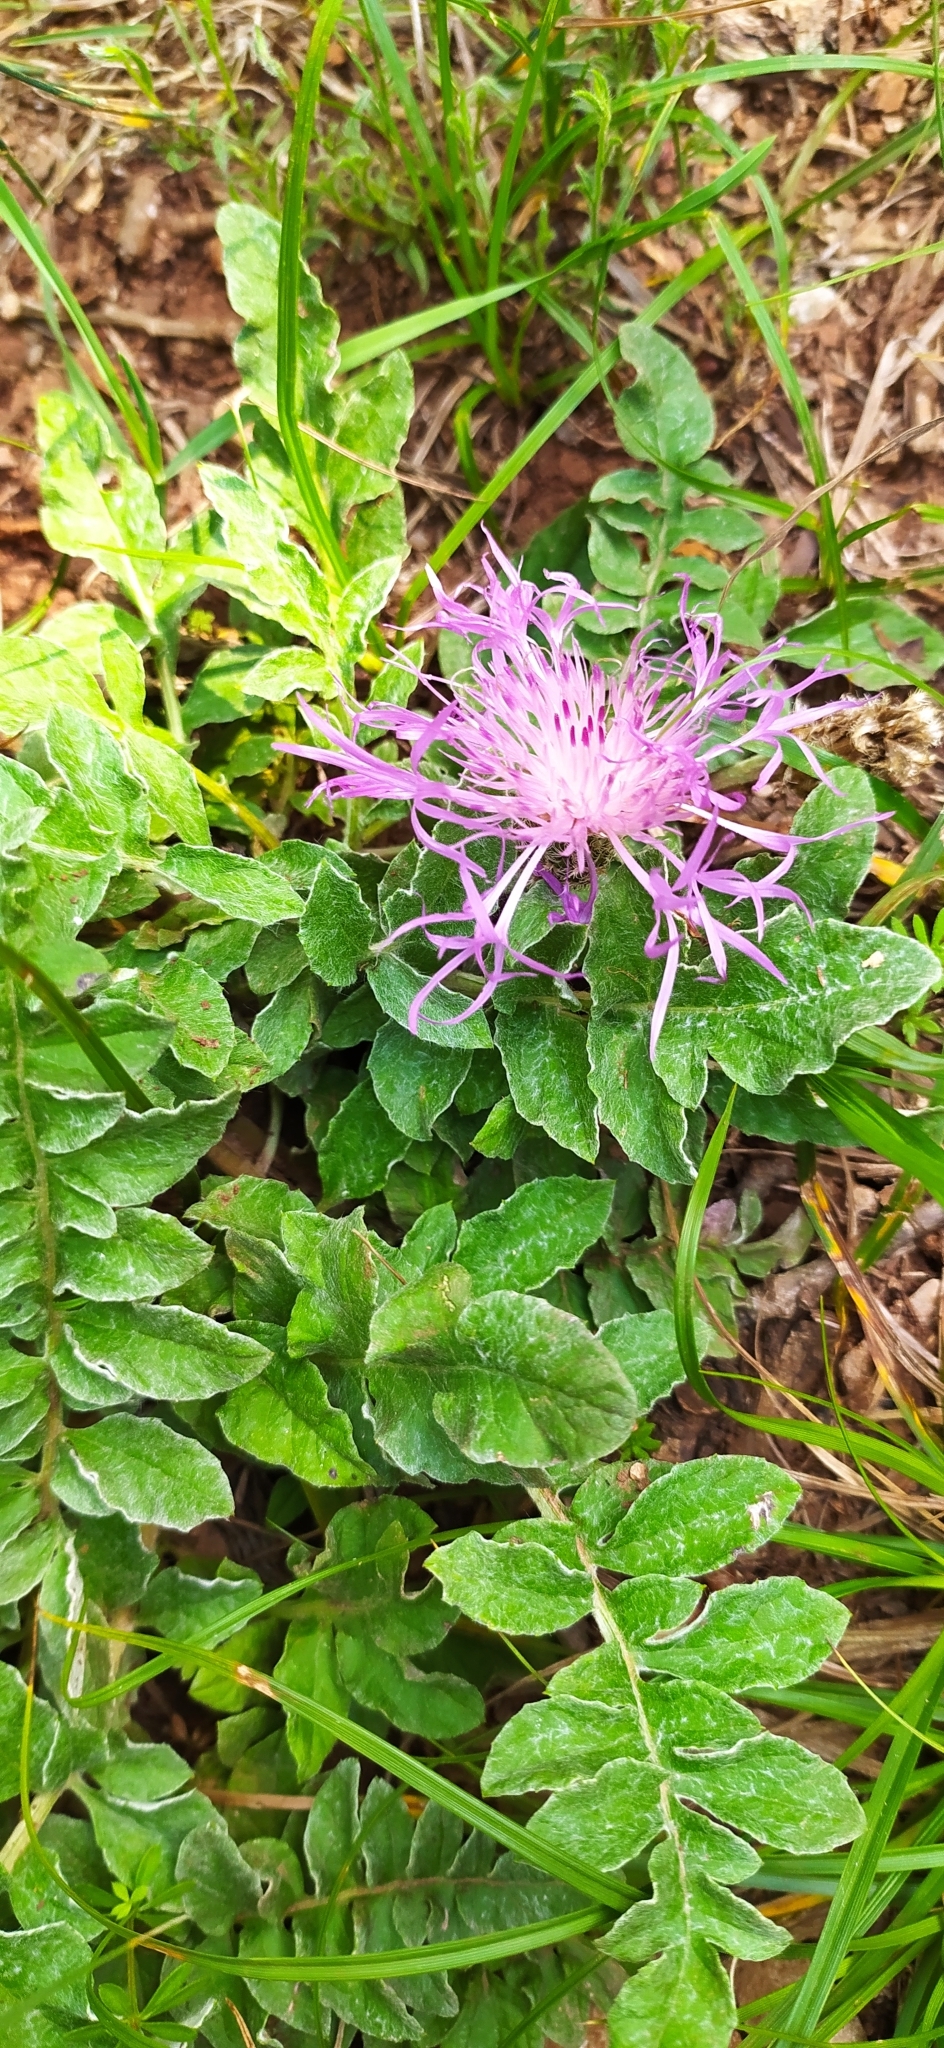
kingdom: Plantae
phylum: Tracheophyta
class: Magnoliopsida
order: Asterales
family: Asteraceae
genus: Psephellus
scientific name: Psephellus declinatus
